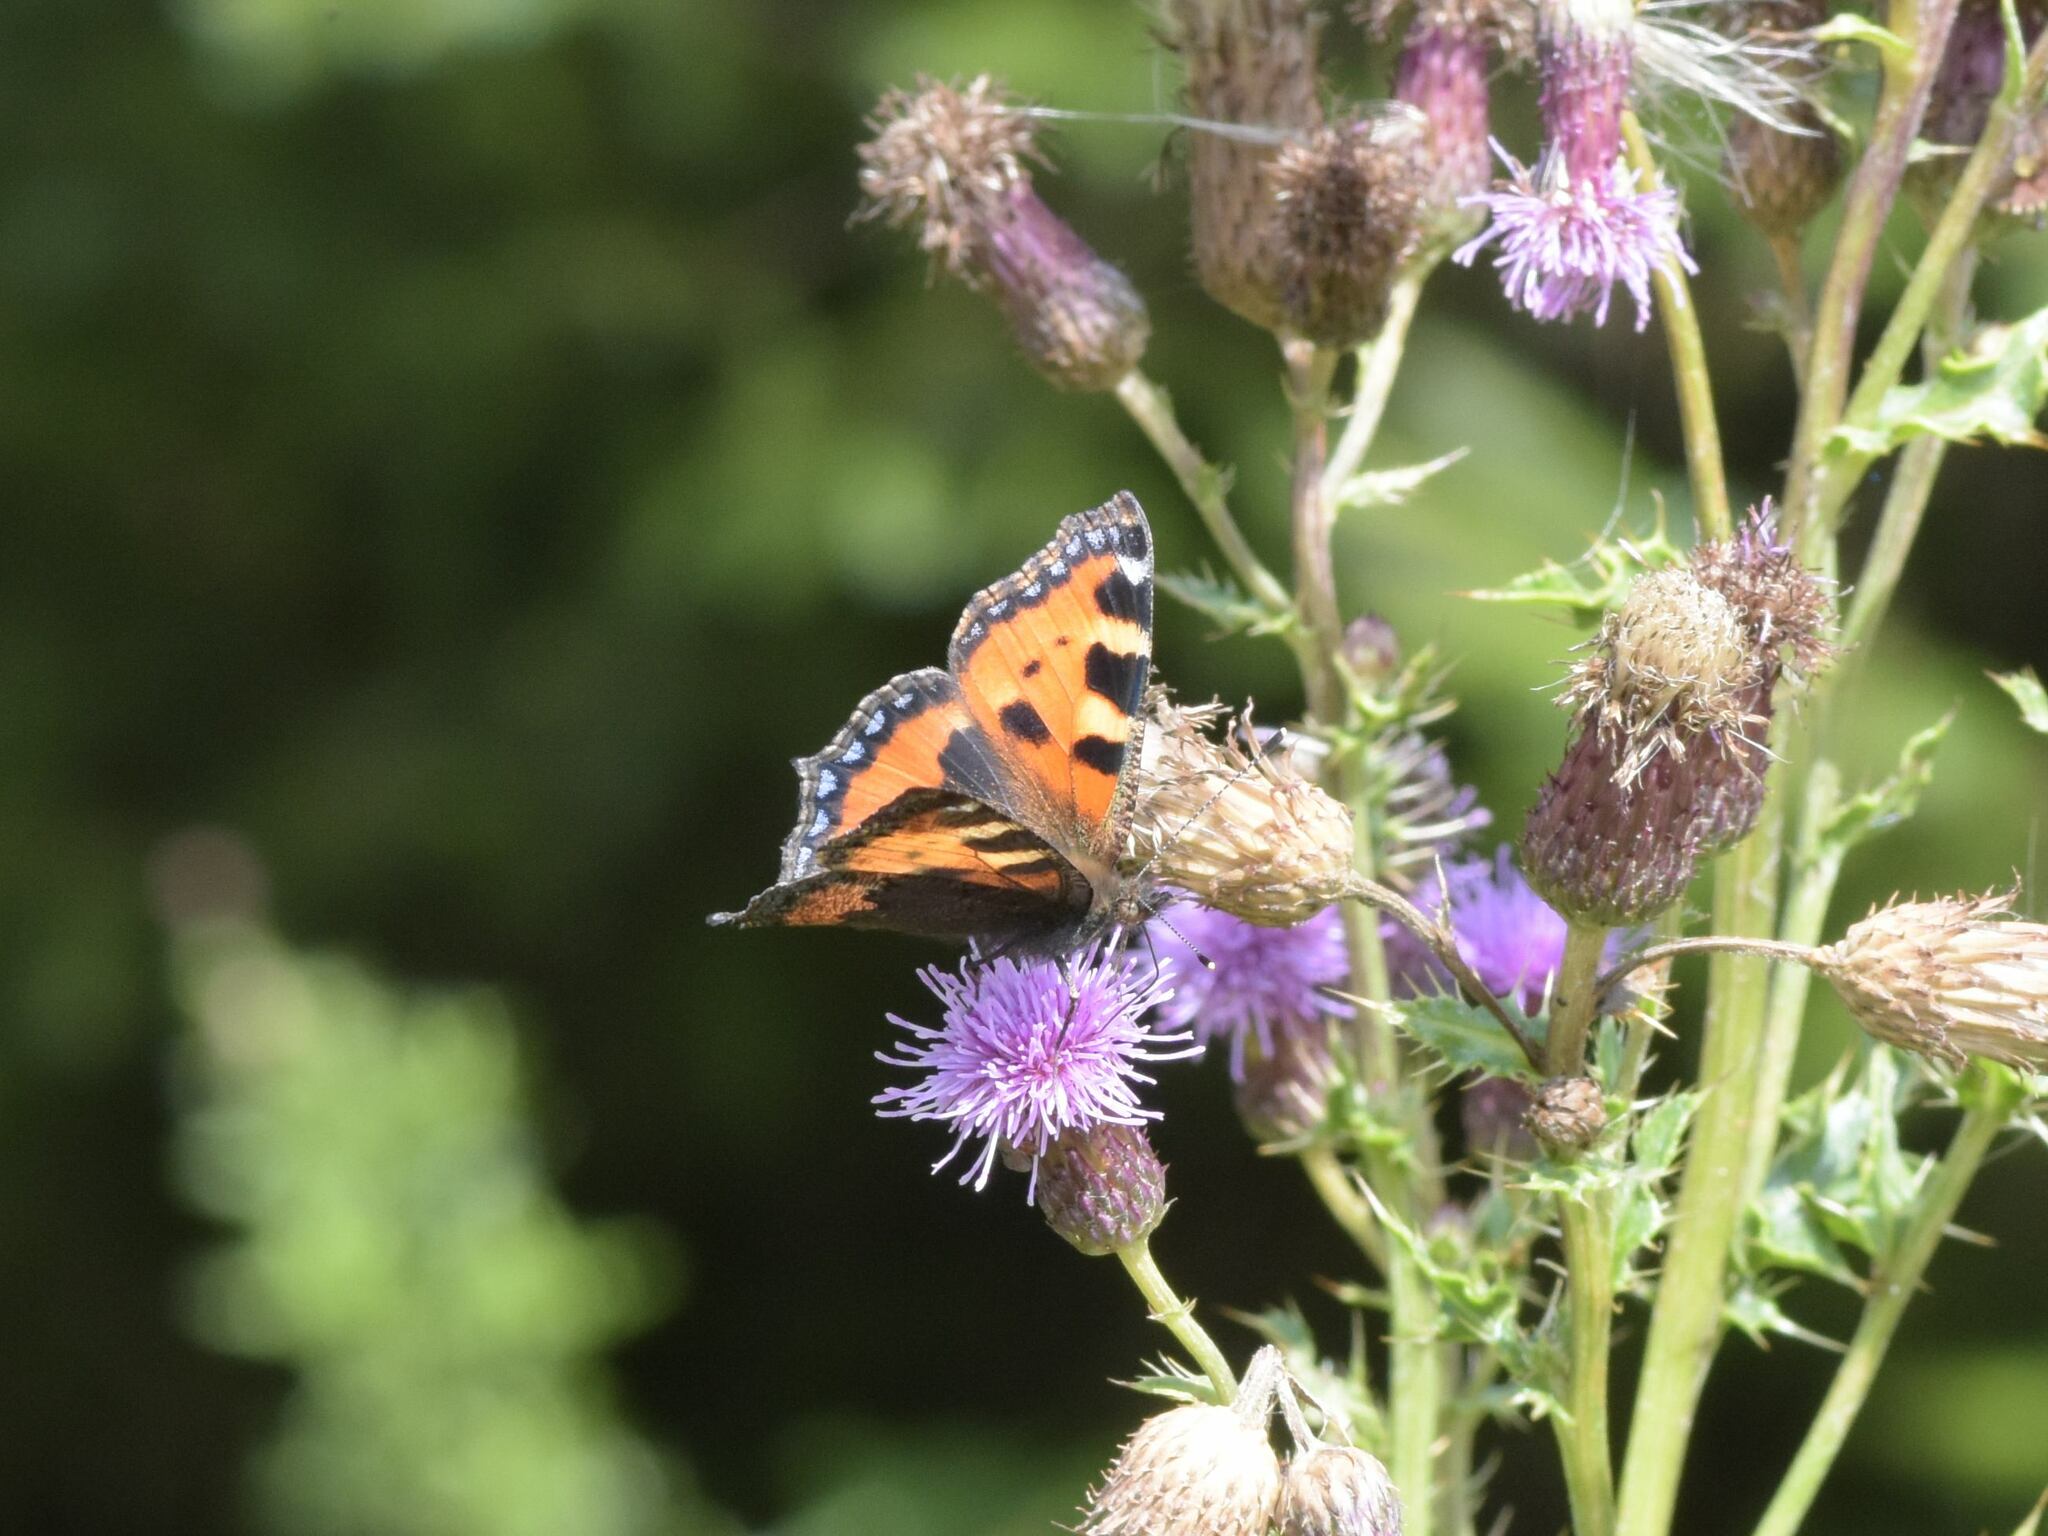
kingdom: Animalia
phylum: Arthropoda
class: Insecta
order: Lepidoptera
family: Nymphalidae
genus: Aglais
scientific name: Aglais urticae
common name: Small tortoiseshell
